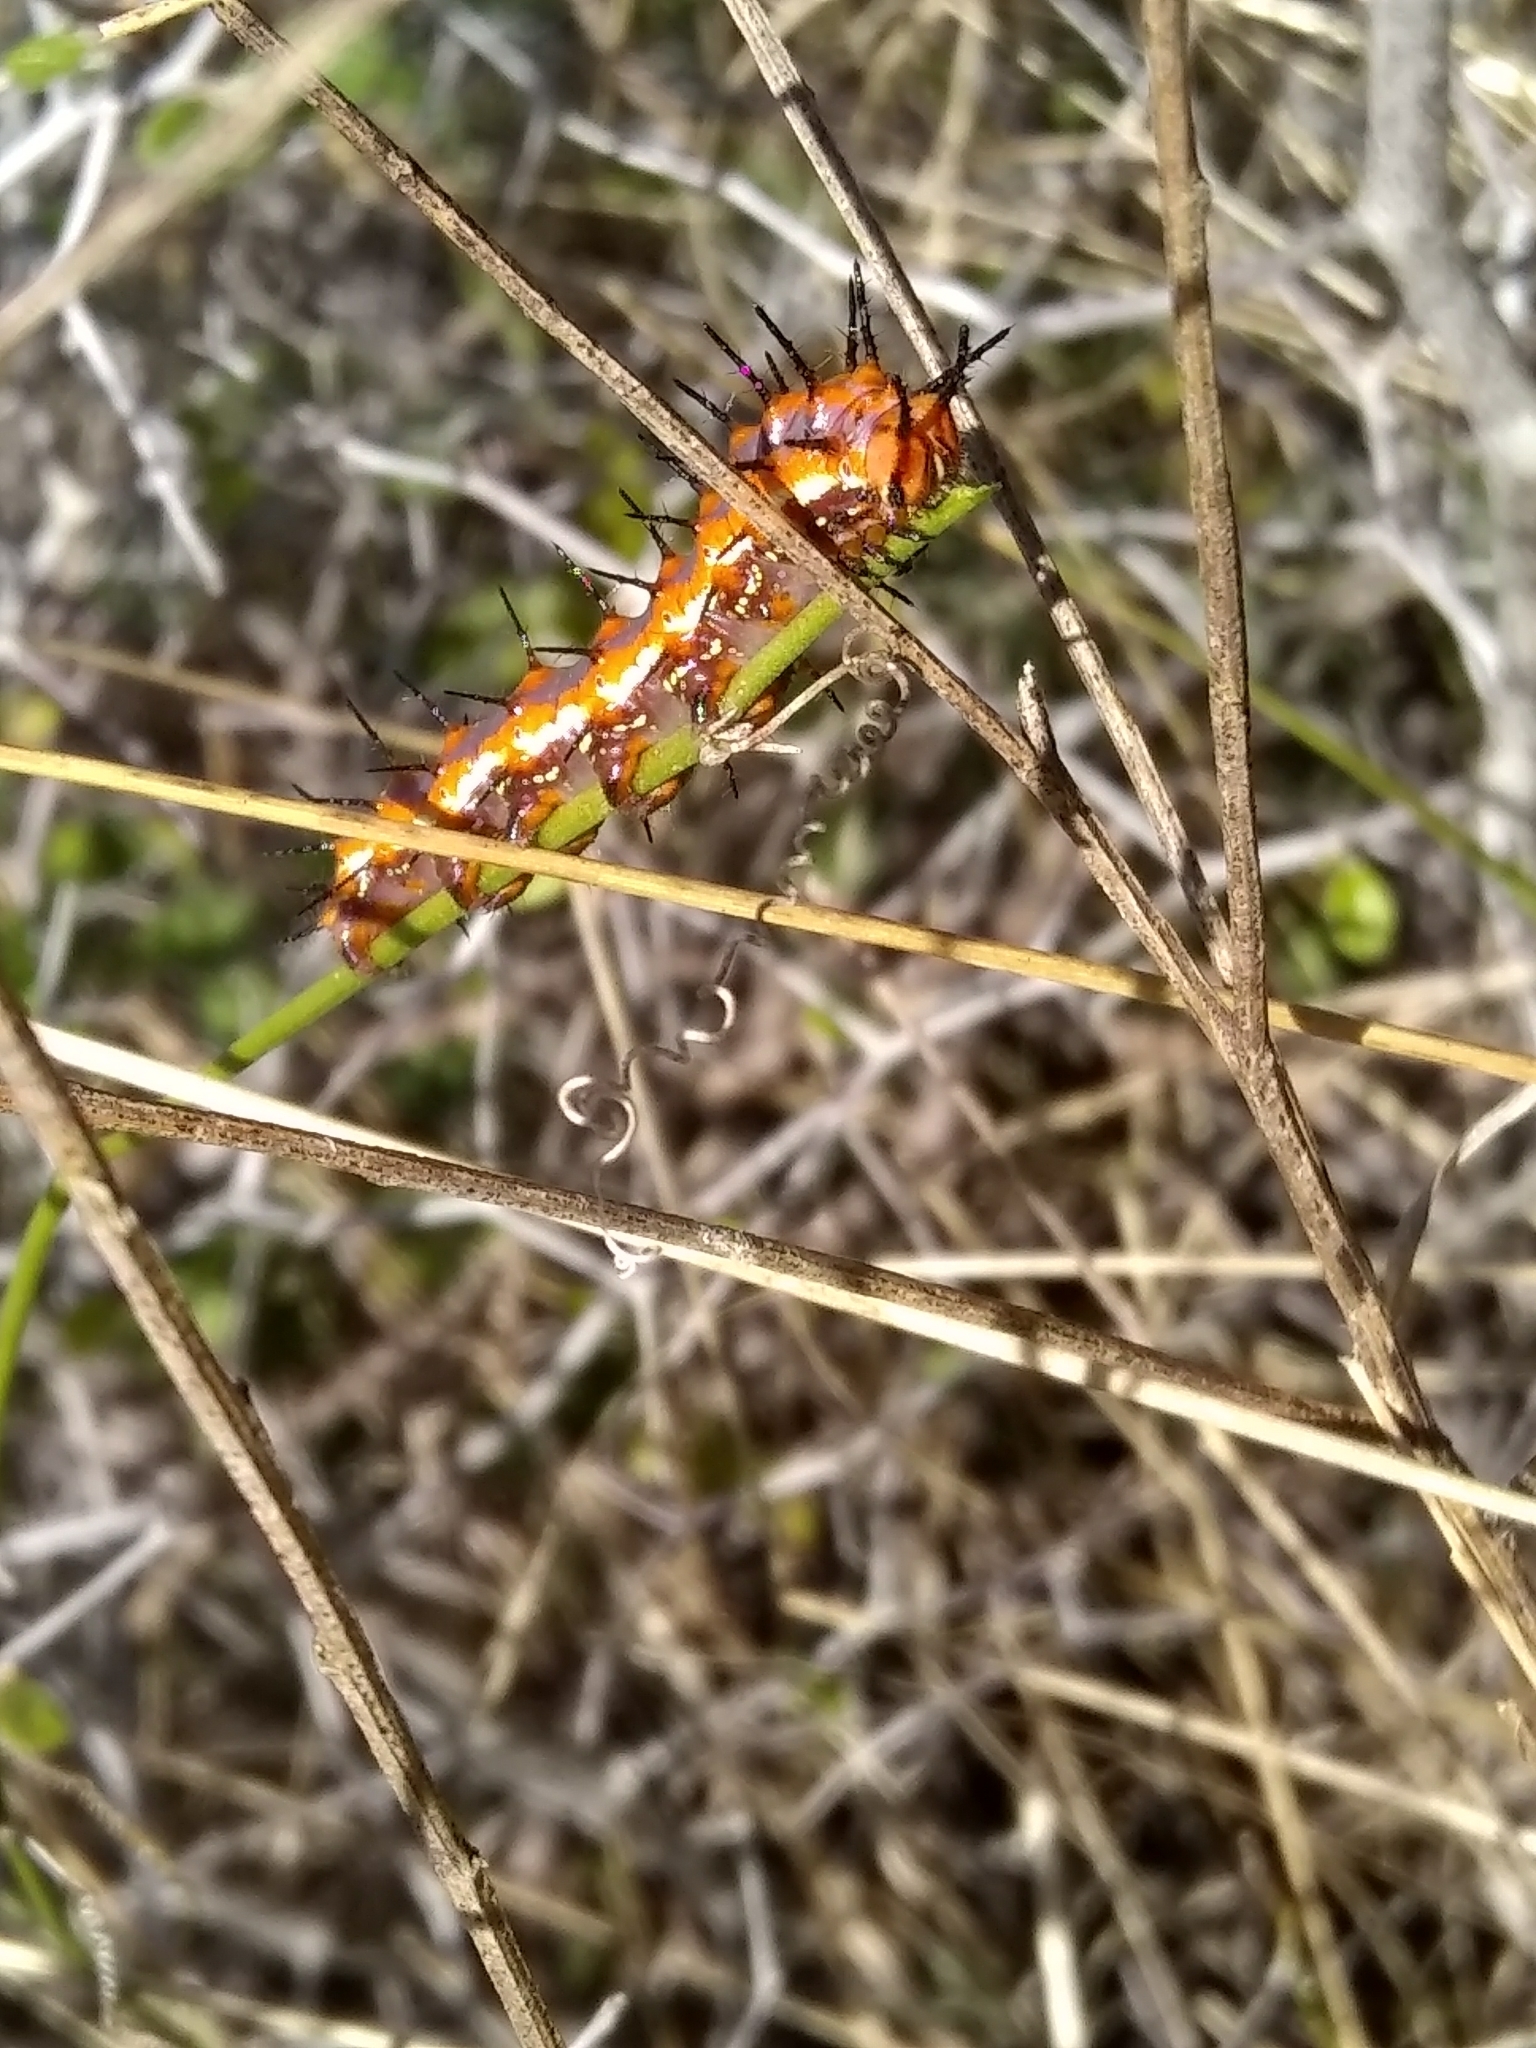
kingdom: Animalia
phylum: Arthropoda
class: Insecta
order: Lepidoptera
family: Nymphalidae
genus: Dione
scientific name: Dione vanillae
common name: Gulf fritillary
